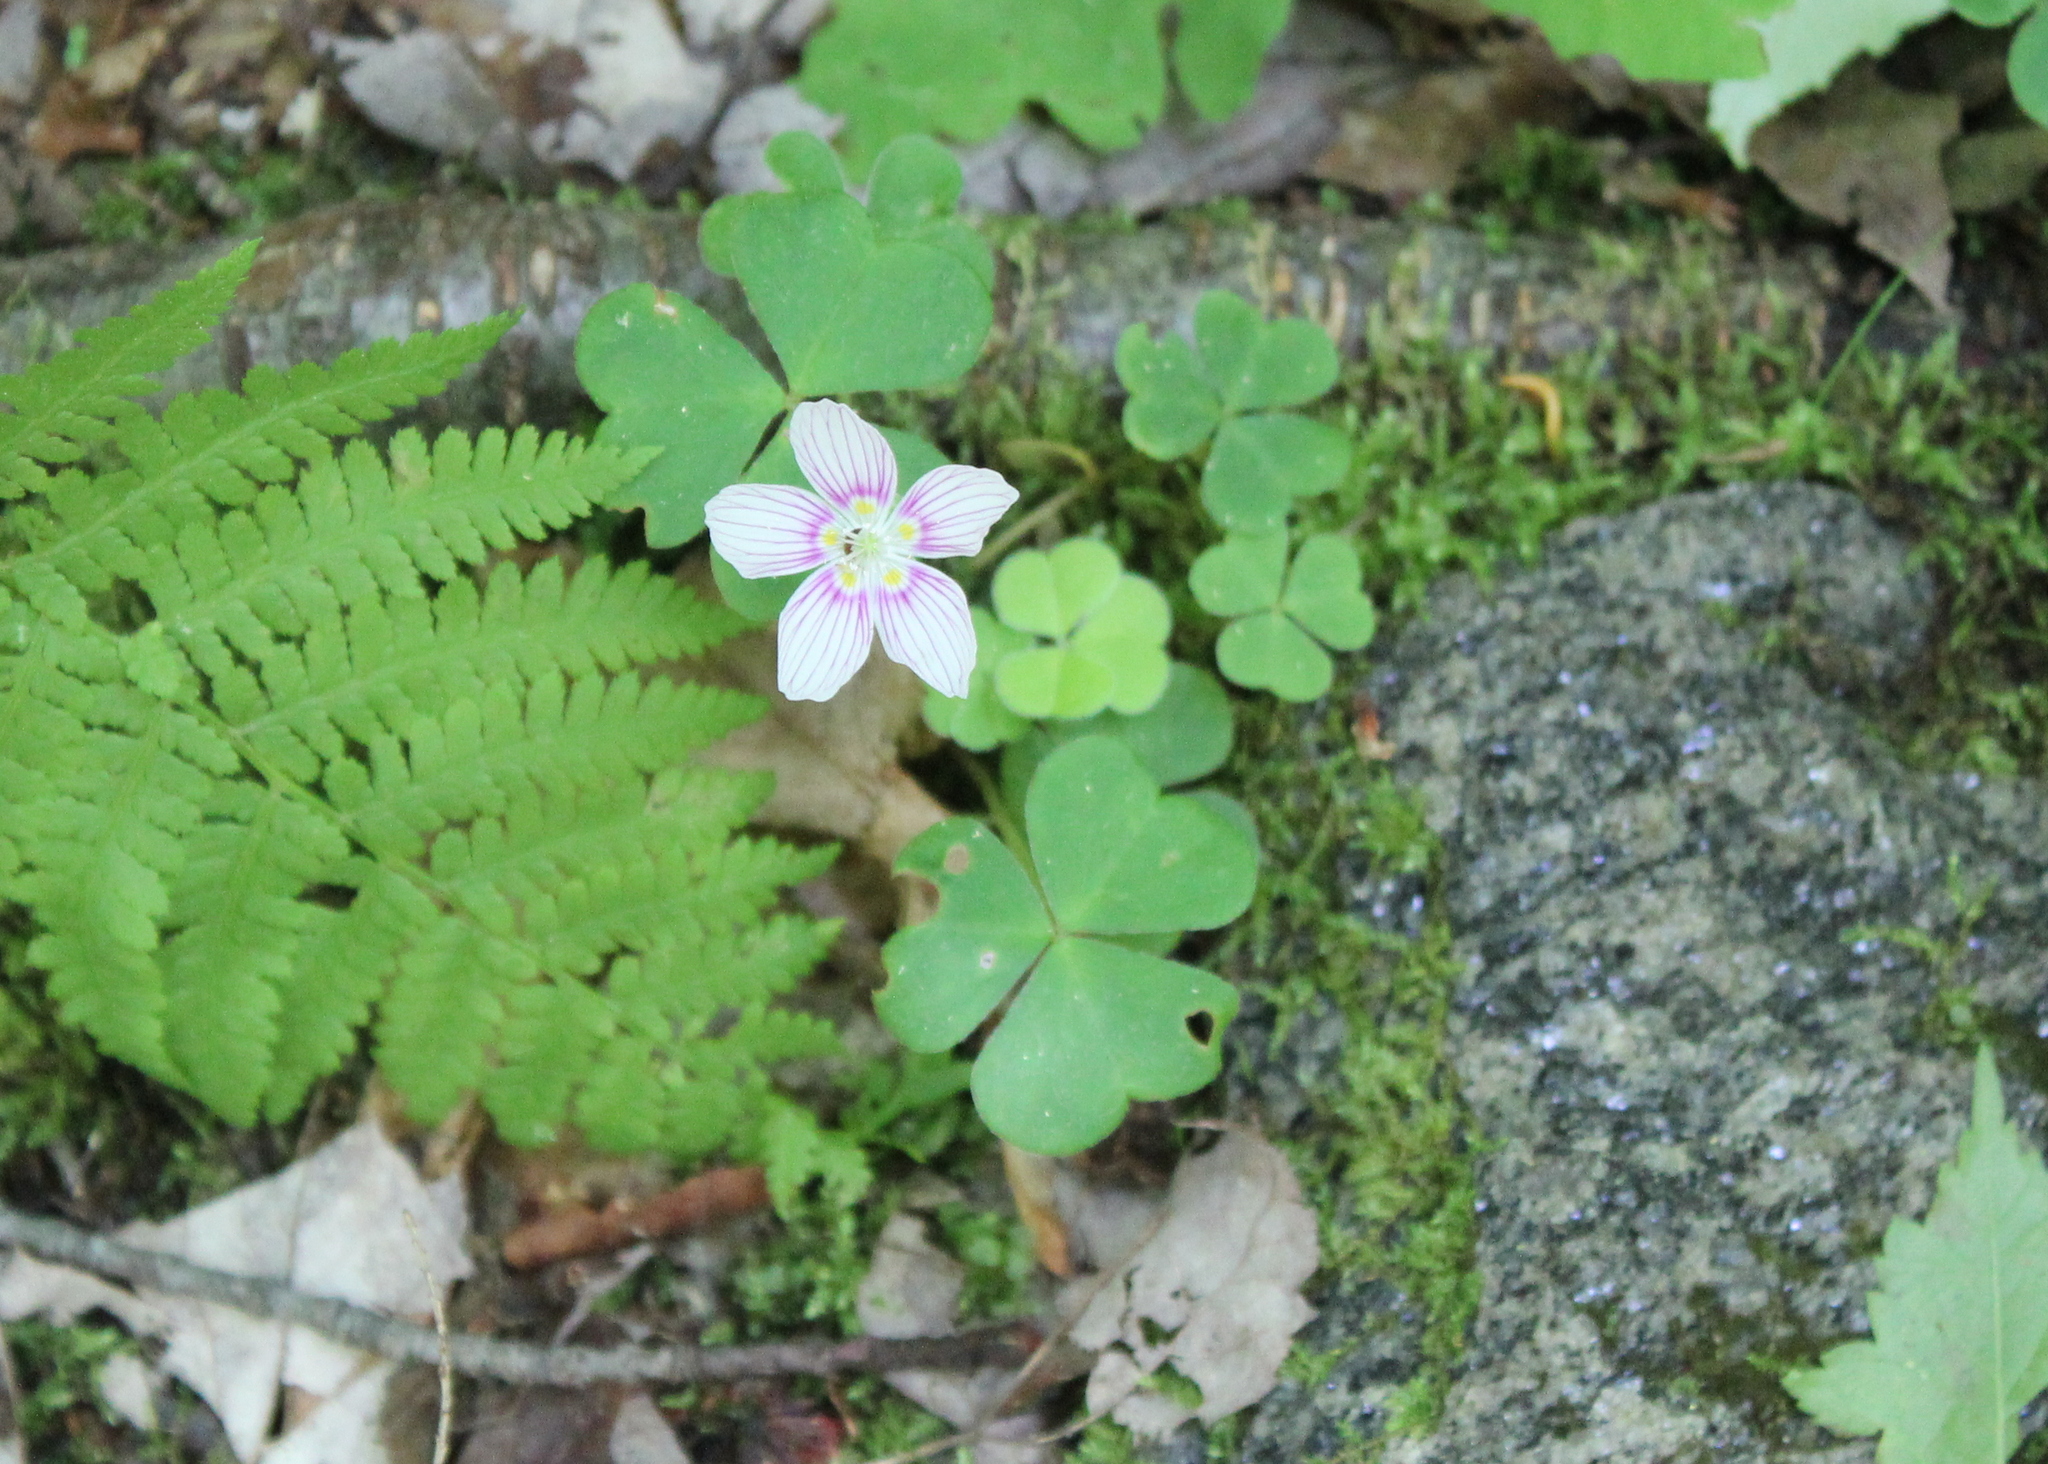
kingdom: Plantae
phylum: Tracheophyta
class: Magnoliopsida
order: Oxalidales
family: Oxalidaceae
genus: Oxalis
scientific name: Oxalis montana
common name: American wood-sorrel
